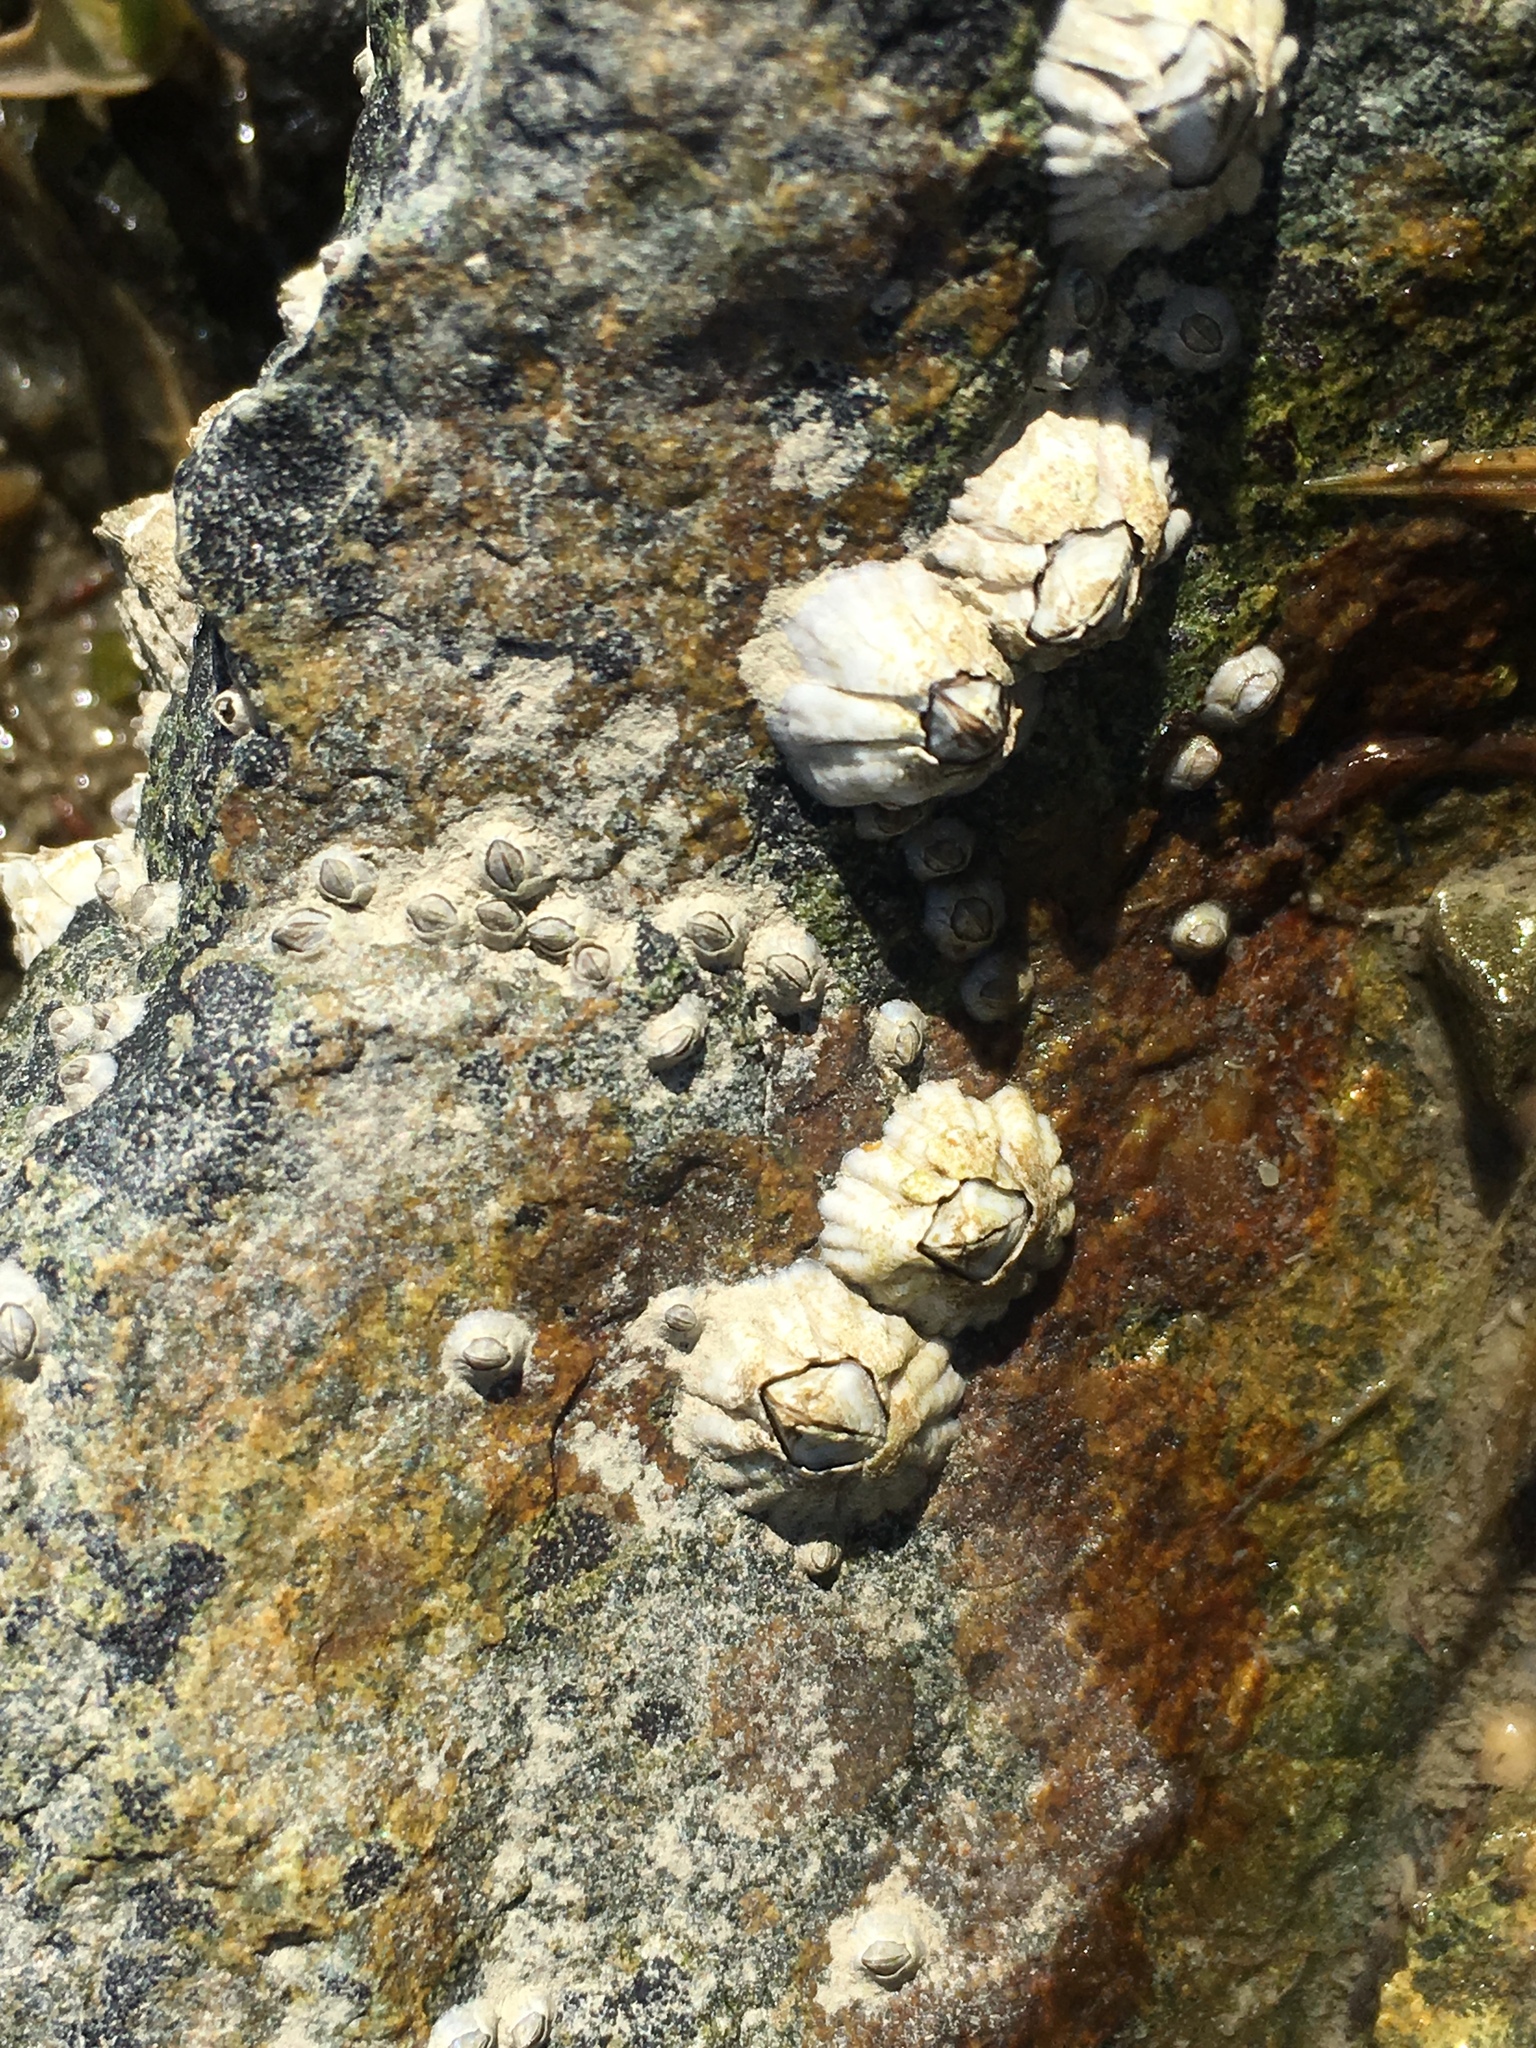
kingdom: Animalia
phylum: Arthropoda
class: Maxillopoda
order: Sessilia
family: Archaeobalanidae
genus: Semibalanus
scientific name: Semibalanus balanoides
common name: Acorn barnacle
